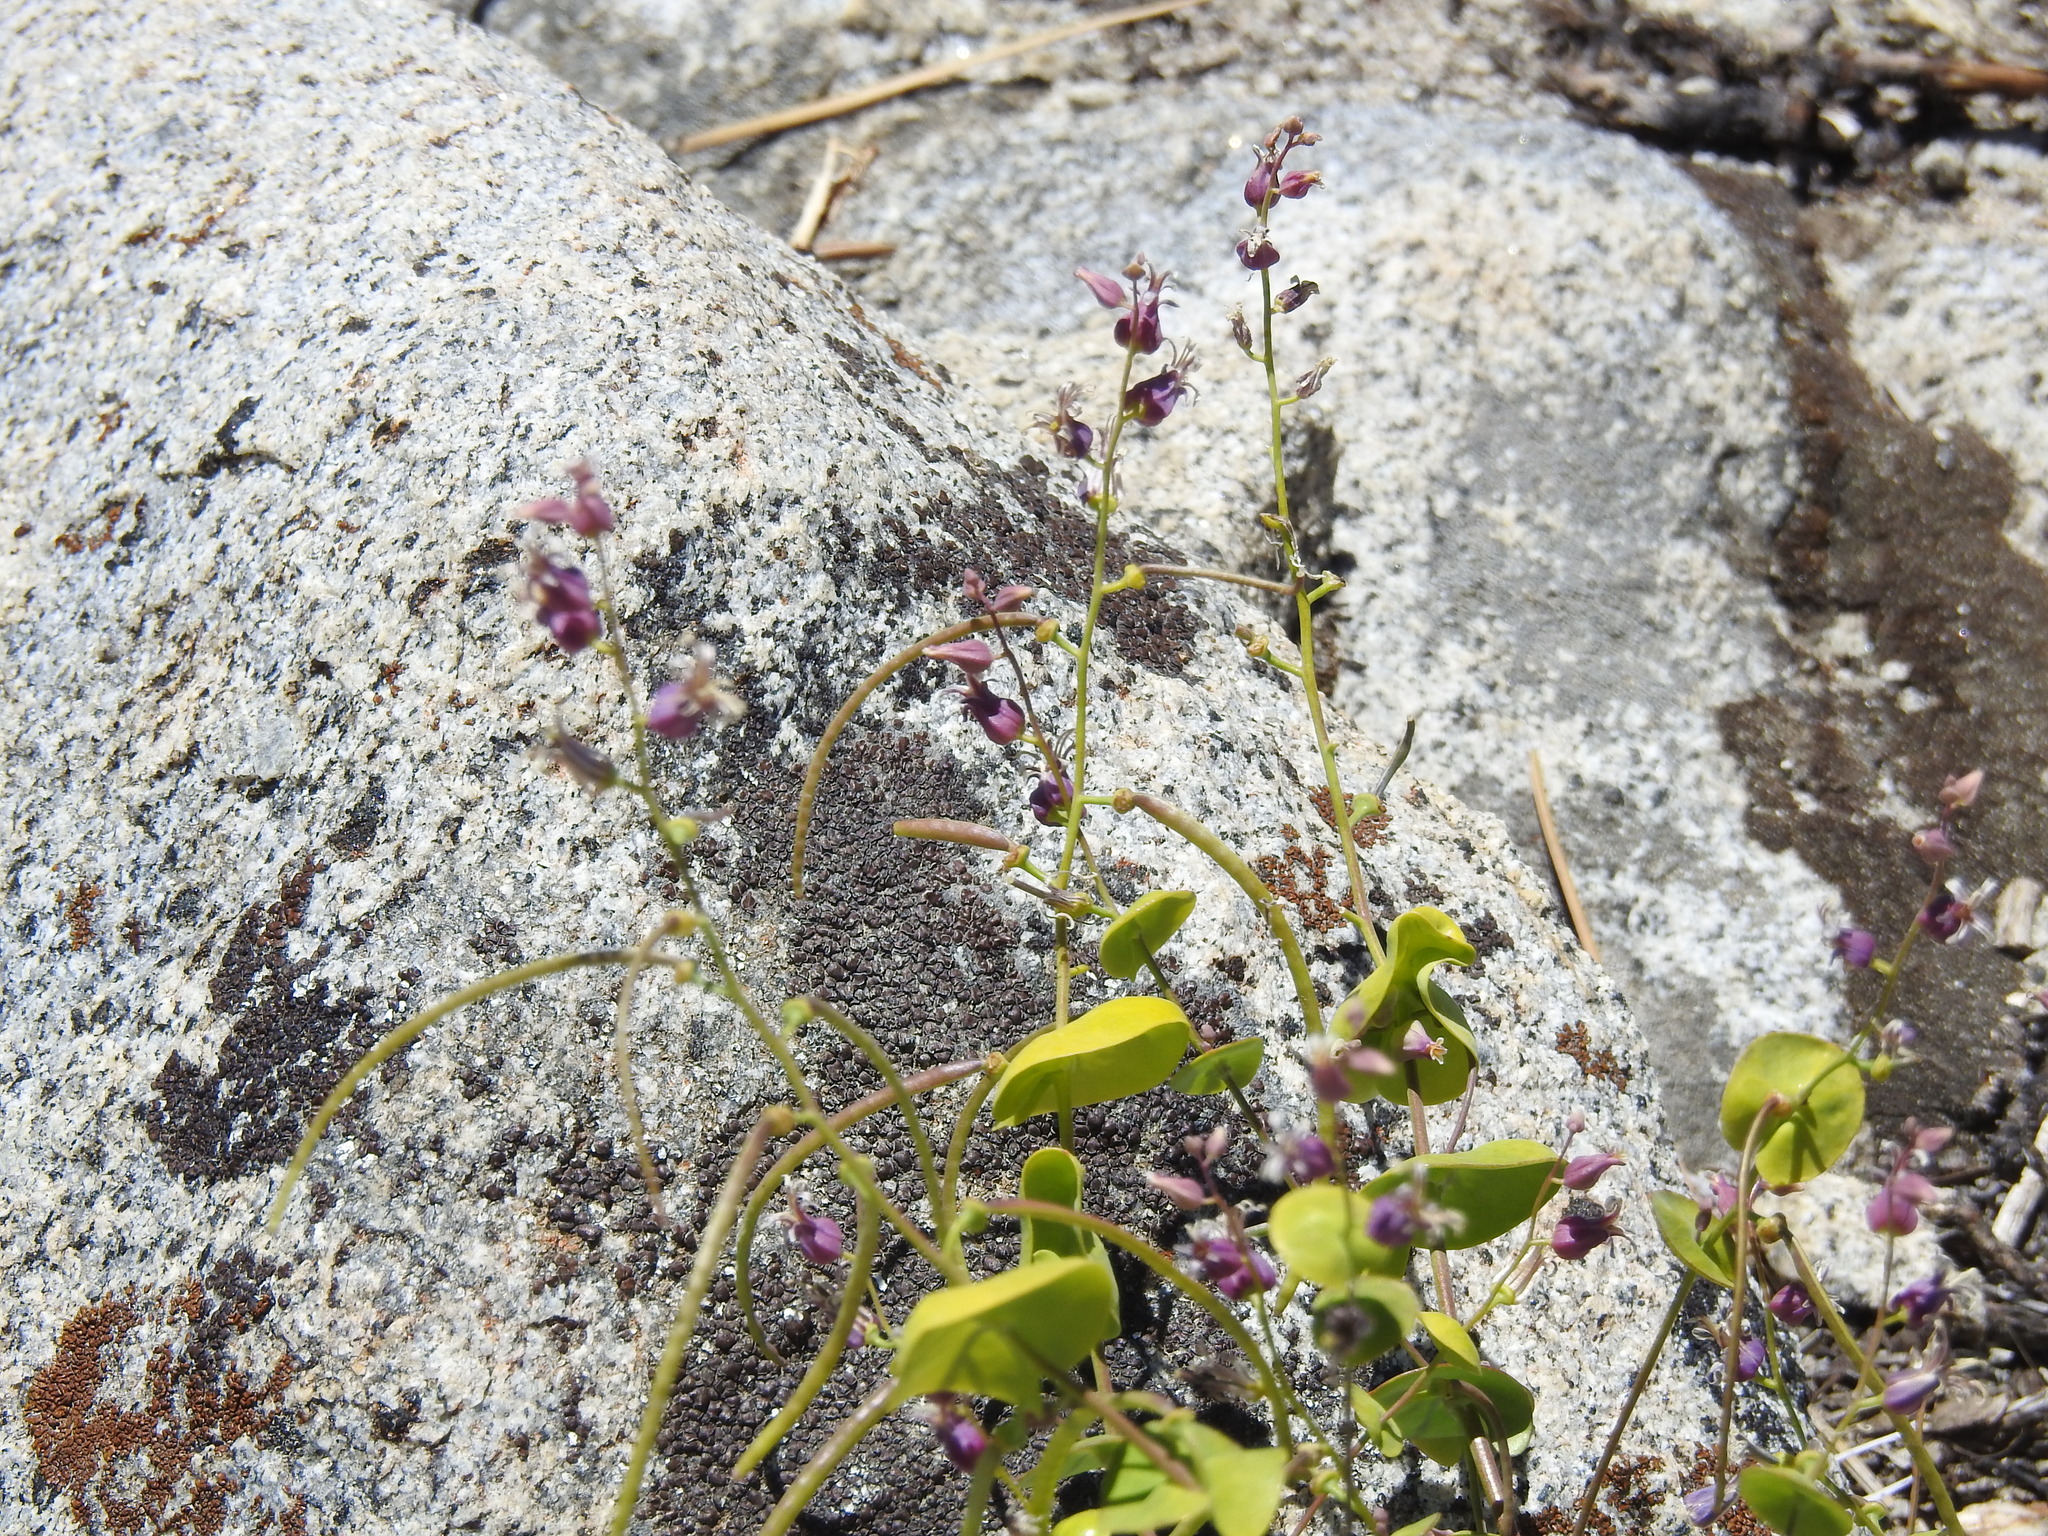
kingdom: Plantae
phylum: Tracheophyta
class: Magnoliopsida
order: Brassicales
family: Brassicaceae
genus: Streptanthus
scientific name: Streptanthus tortuosus
